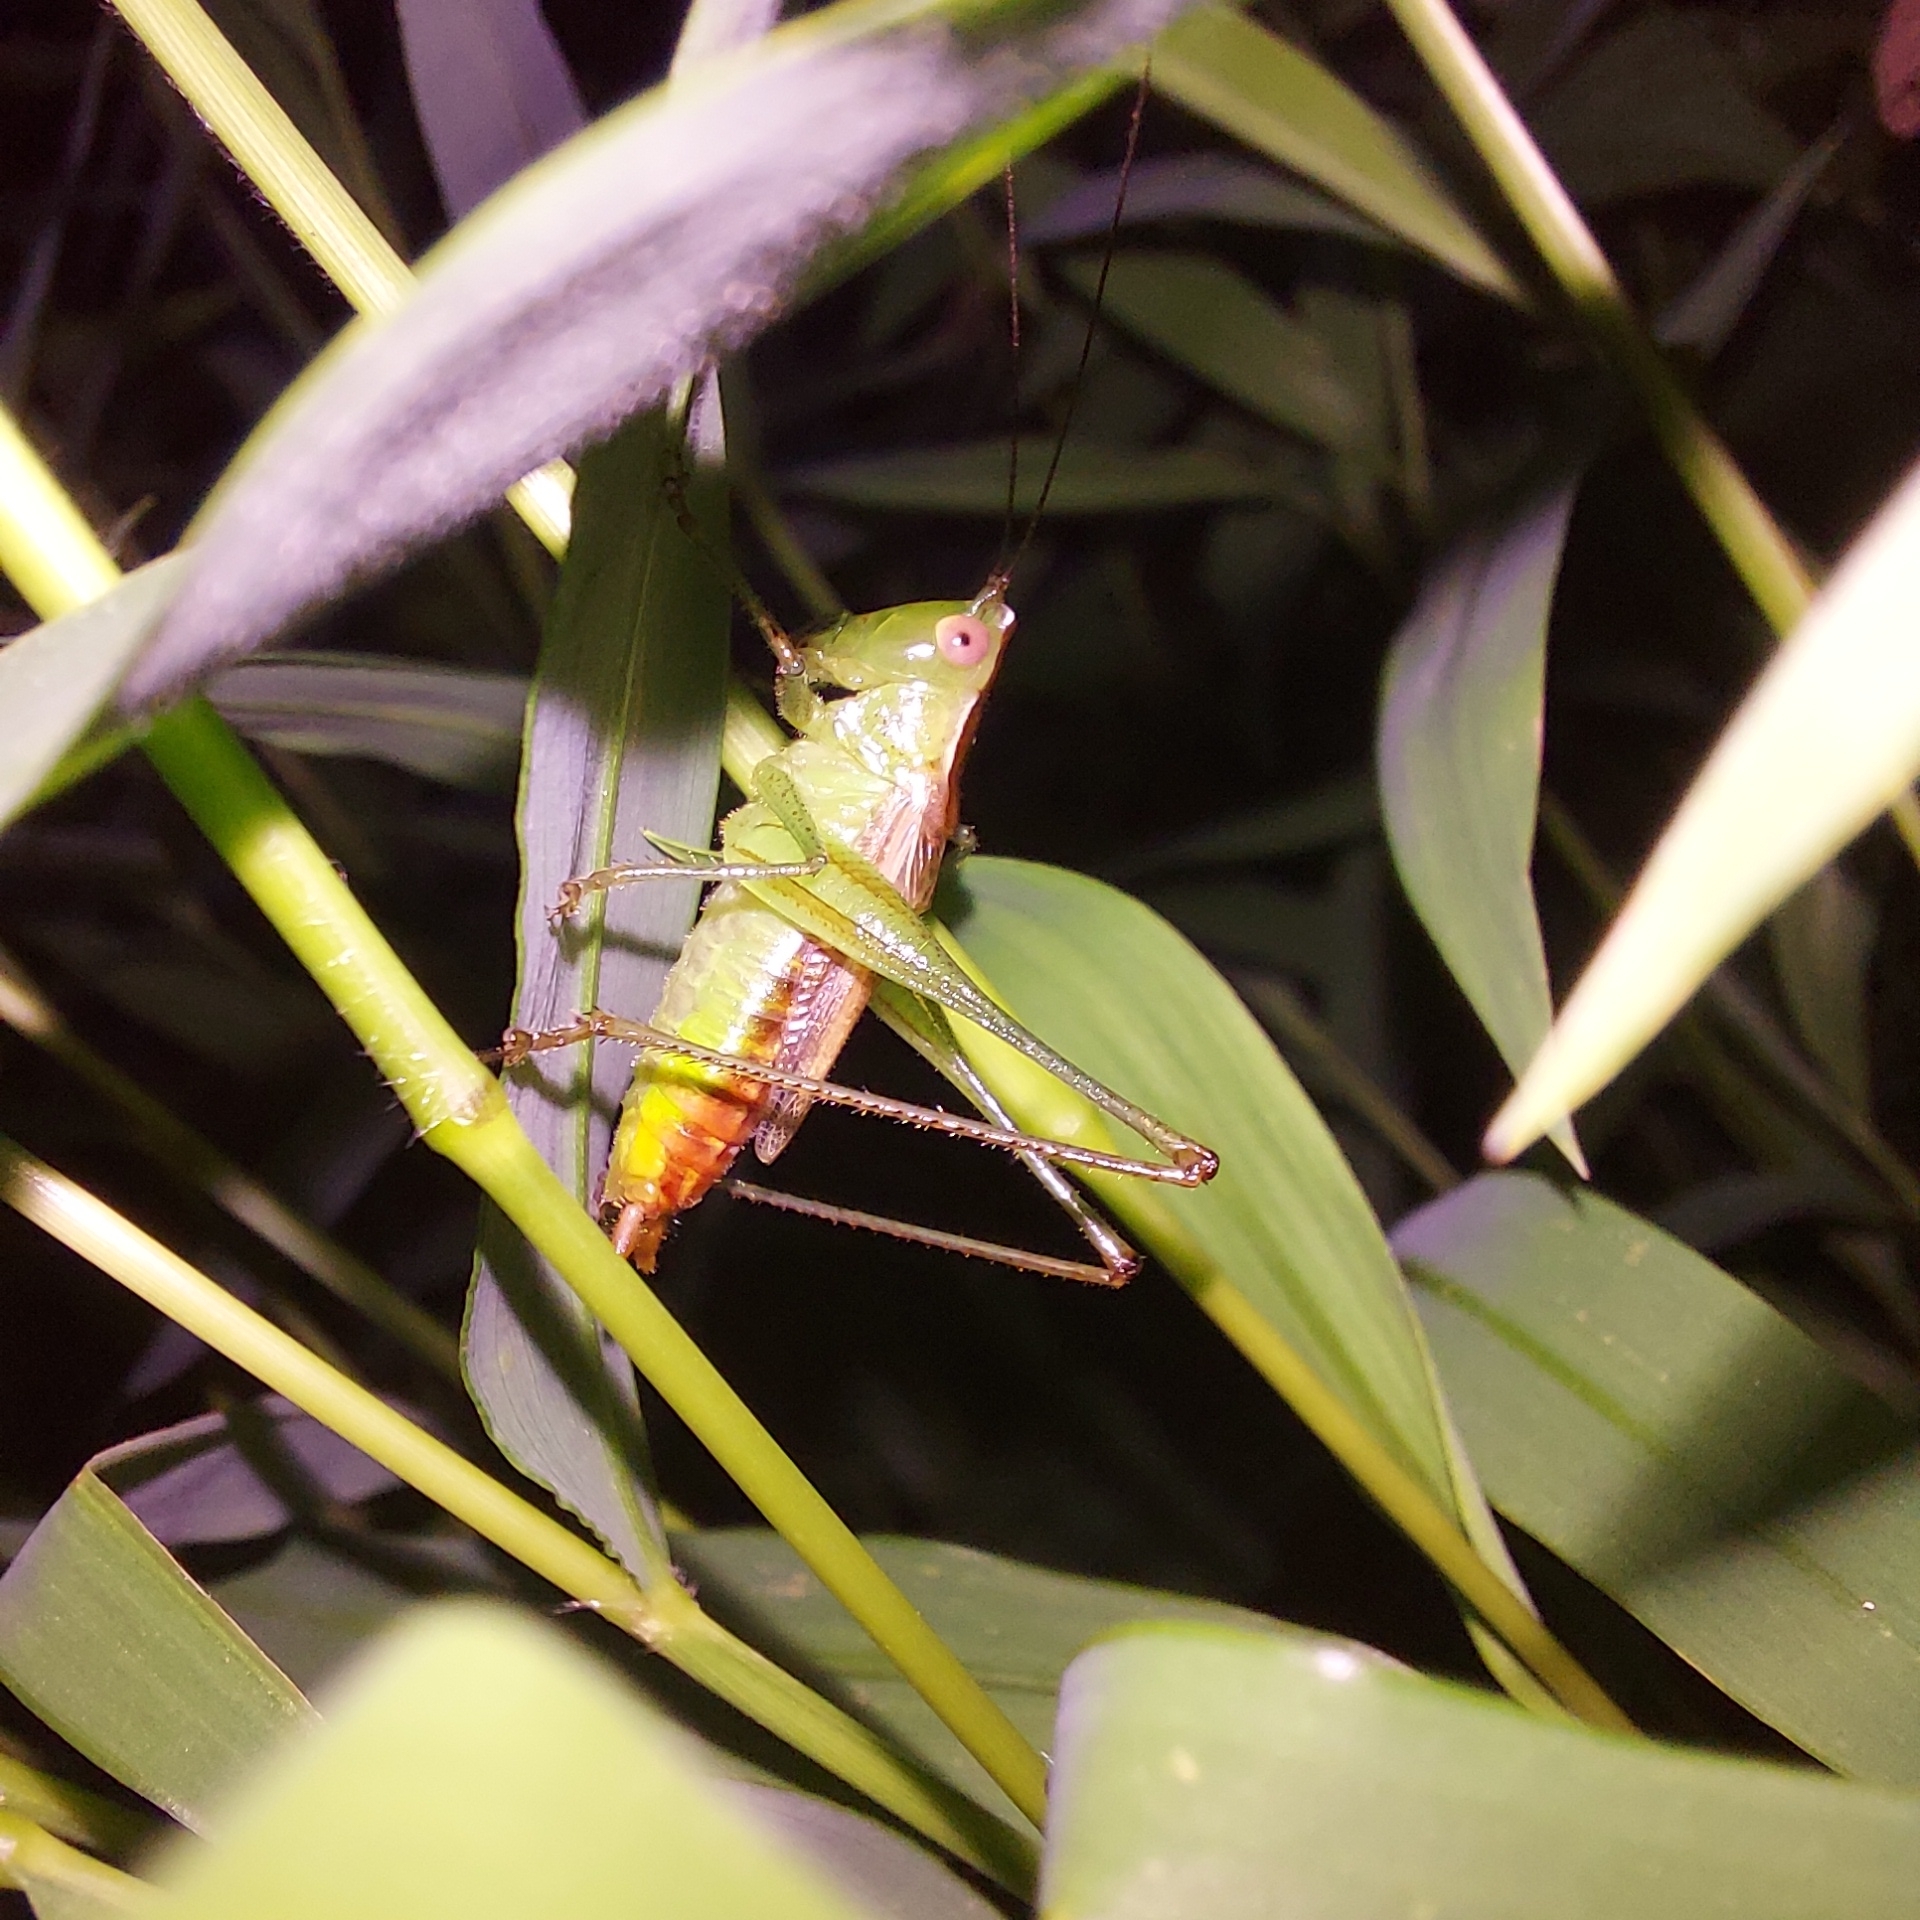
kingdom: Animalia
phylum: Arthropoda
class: Insecta
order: Orthoptera
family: Tettigoniidae
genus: Conocephalus
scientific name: Conocephalus brevipennis
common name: Short-winged meadow katydid
